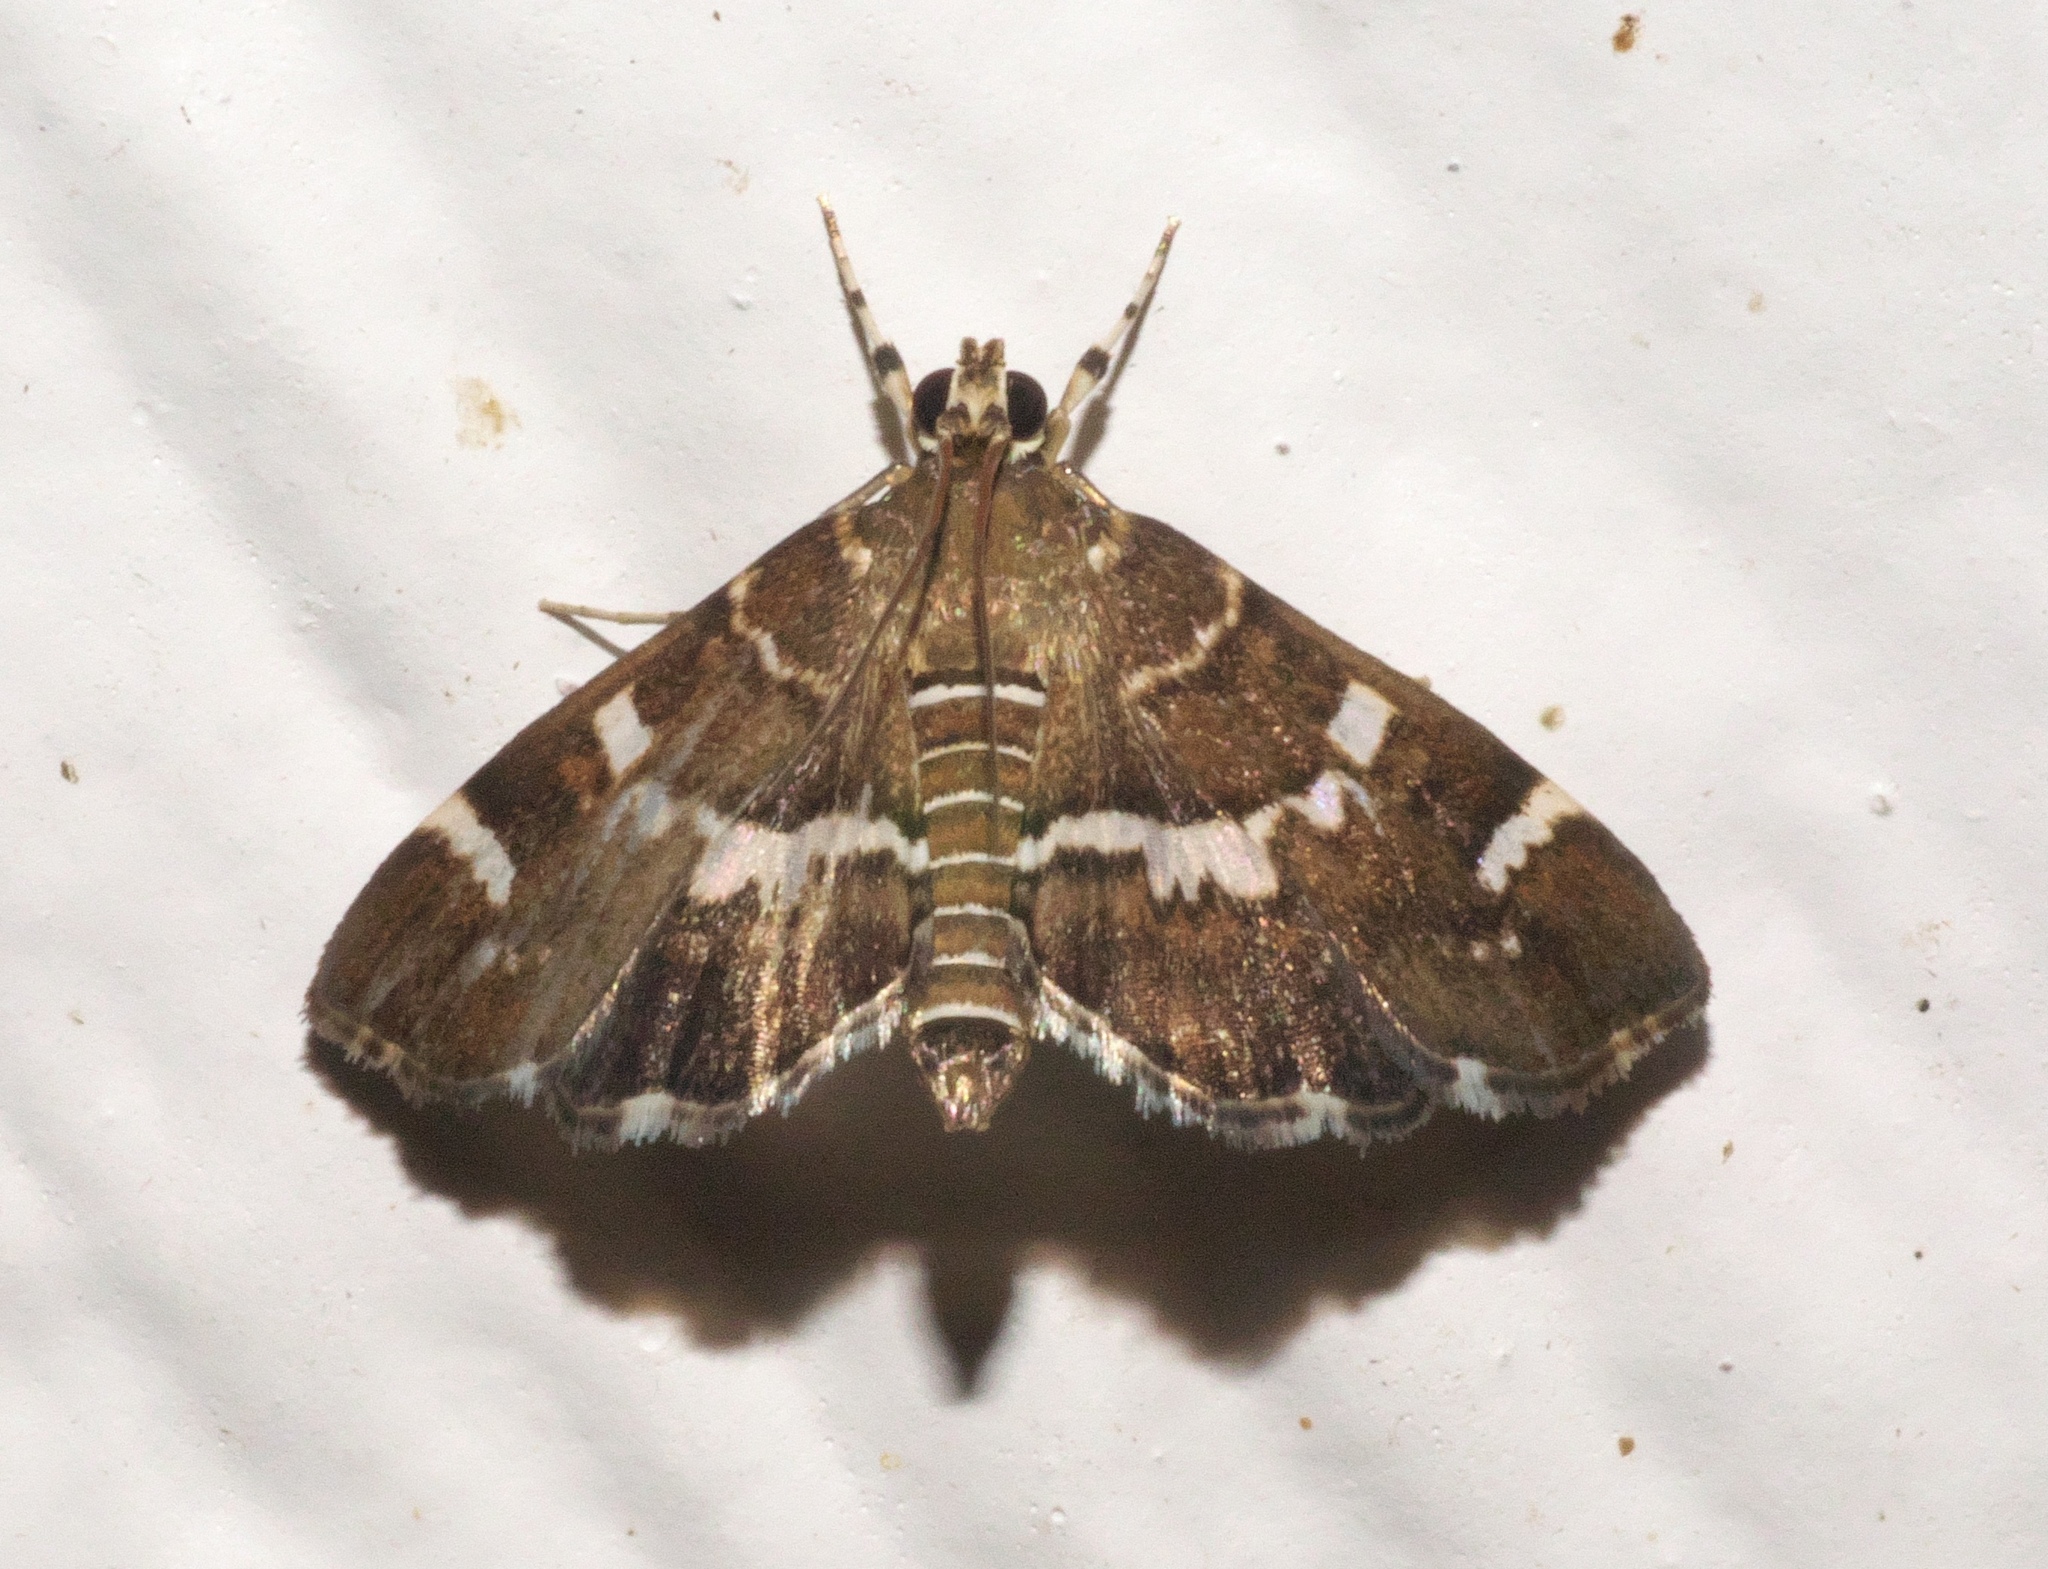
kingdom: Animalia
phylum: Arthropoda
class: Insecta
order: Lepidoptera
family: Crambidae
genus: Hymenia
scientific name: Hymenia perspectalis
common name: Spotted beet webworm
